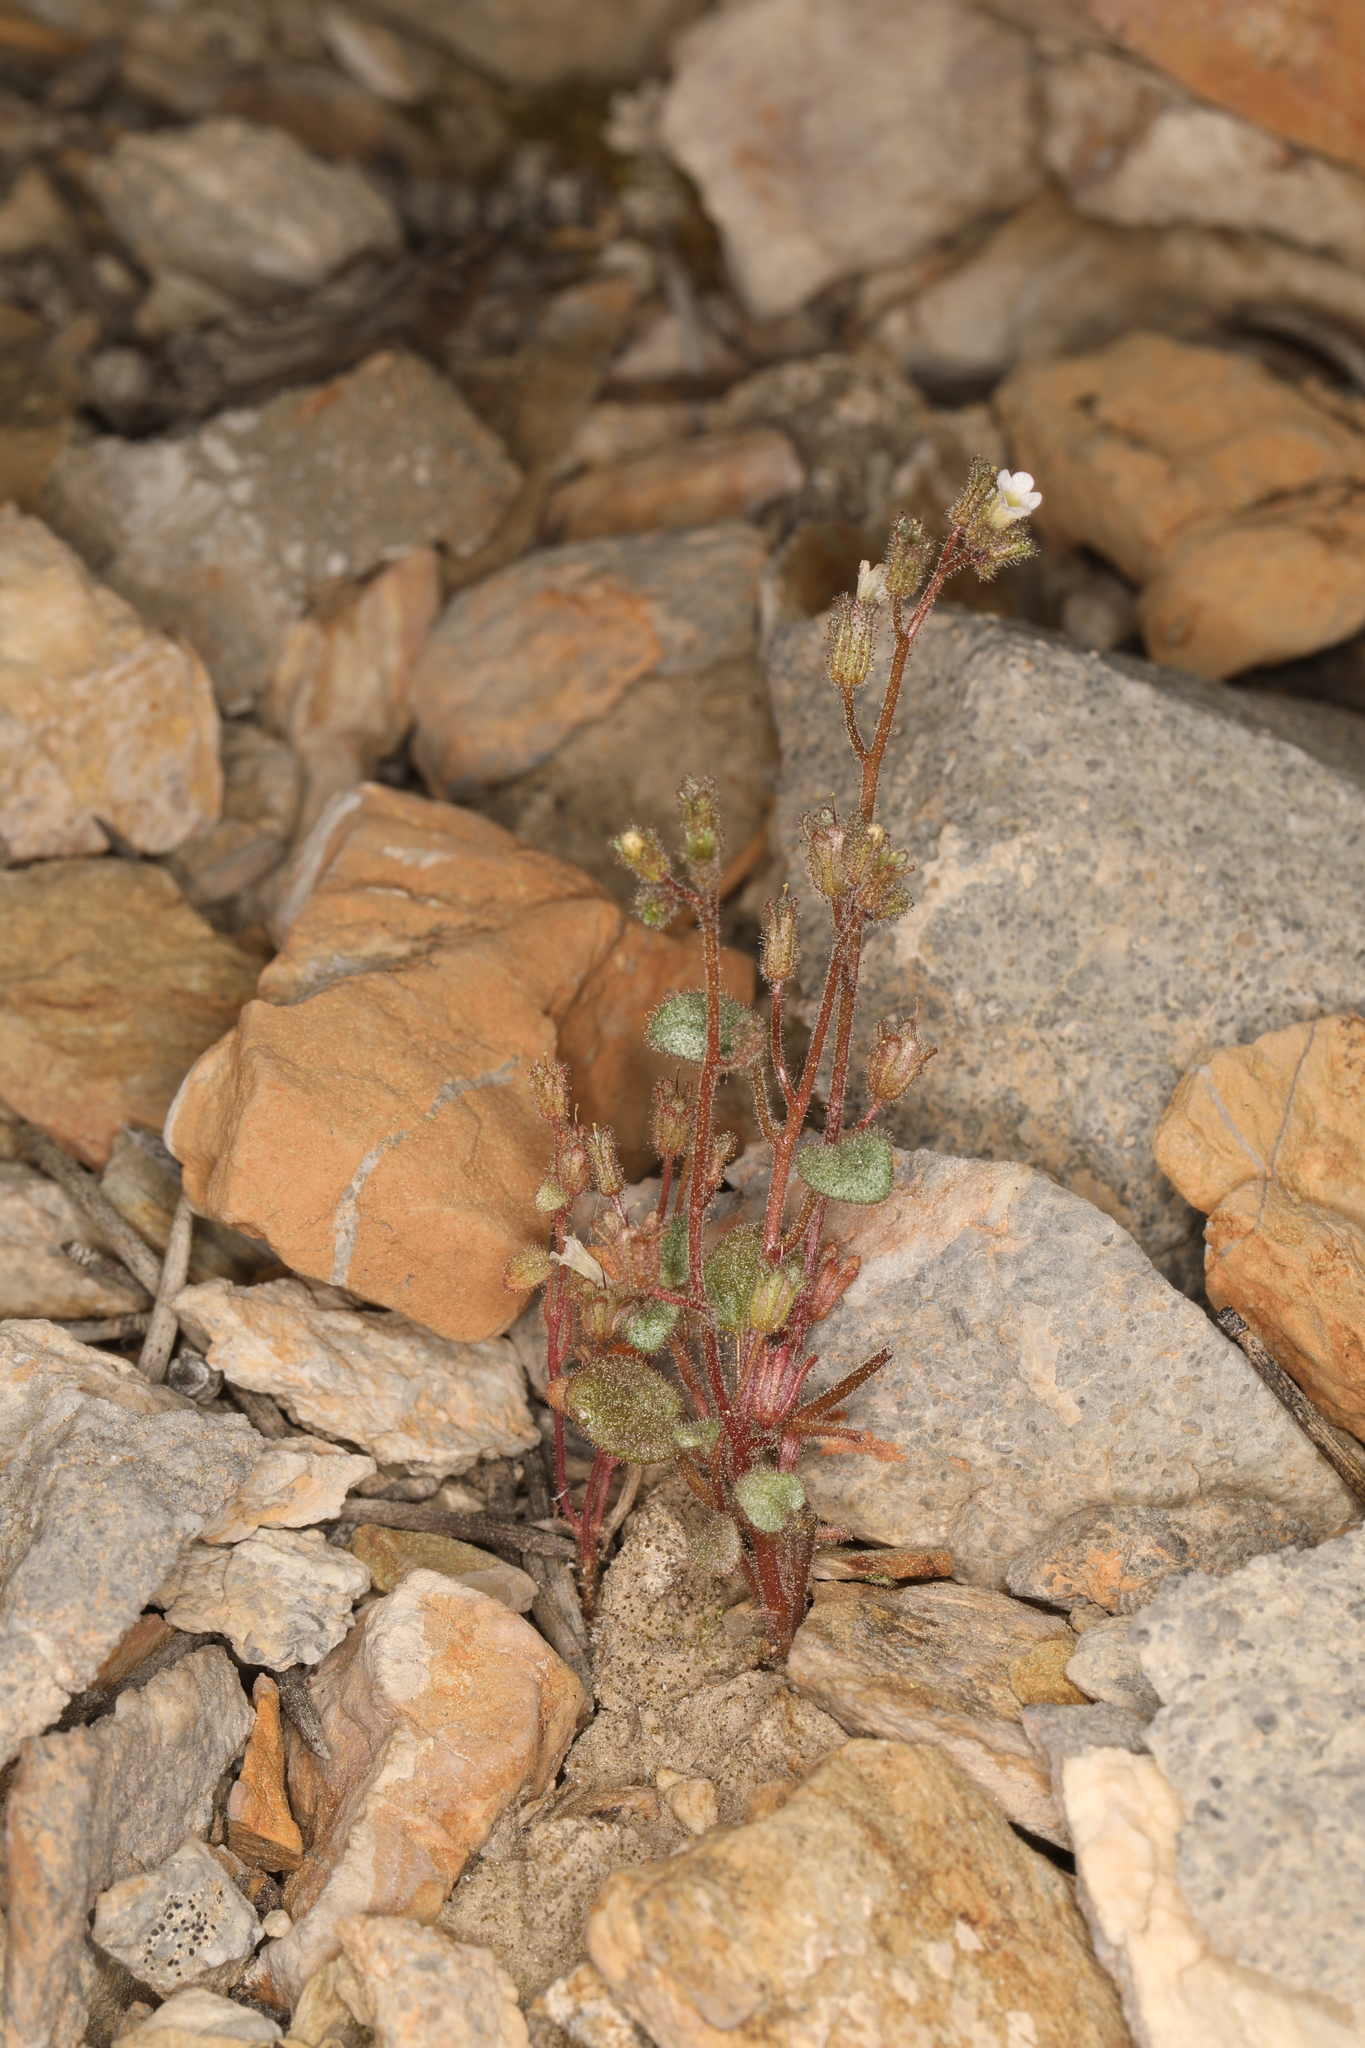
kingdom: Plantae
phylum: Tracheophyta
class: Magnoliopsida
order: Boraginales
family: Hydrophyllaceae
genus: Phacelia
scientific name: Phacelia barnebyana
